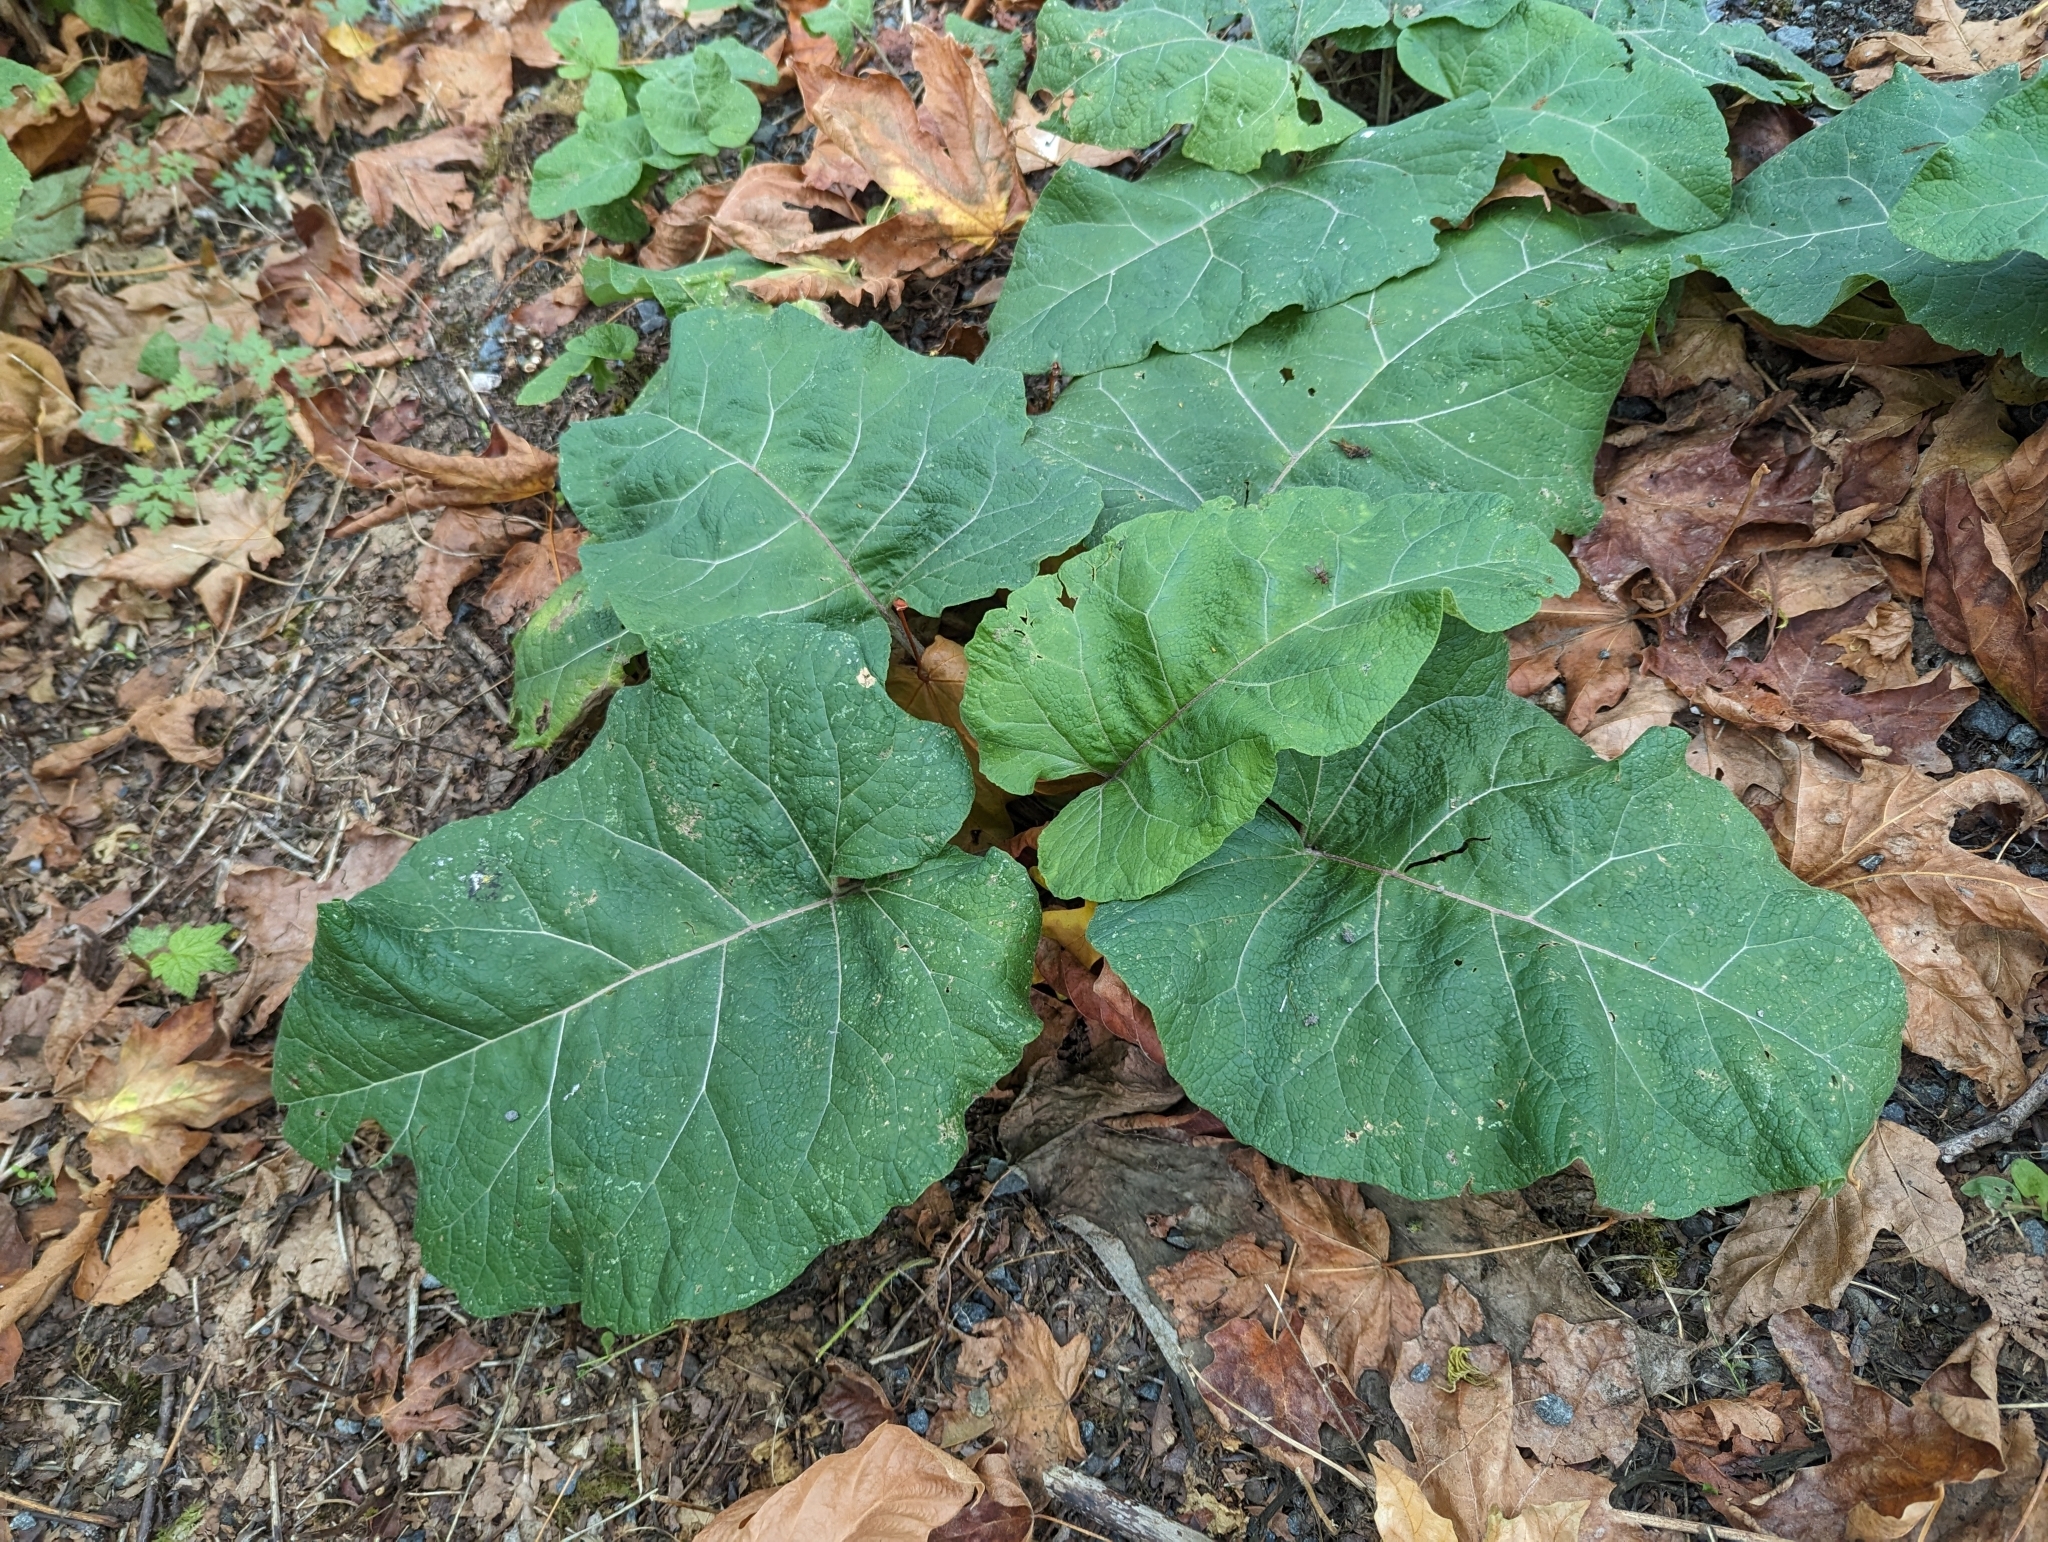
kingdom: Plantae
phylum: Tracheophyta
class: Magnoliopsida
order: Caryophyllales
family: Polygonaceae
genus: Rumex
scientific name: Rumex obtusifolius
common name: Bitter dock
